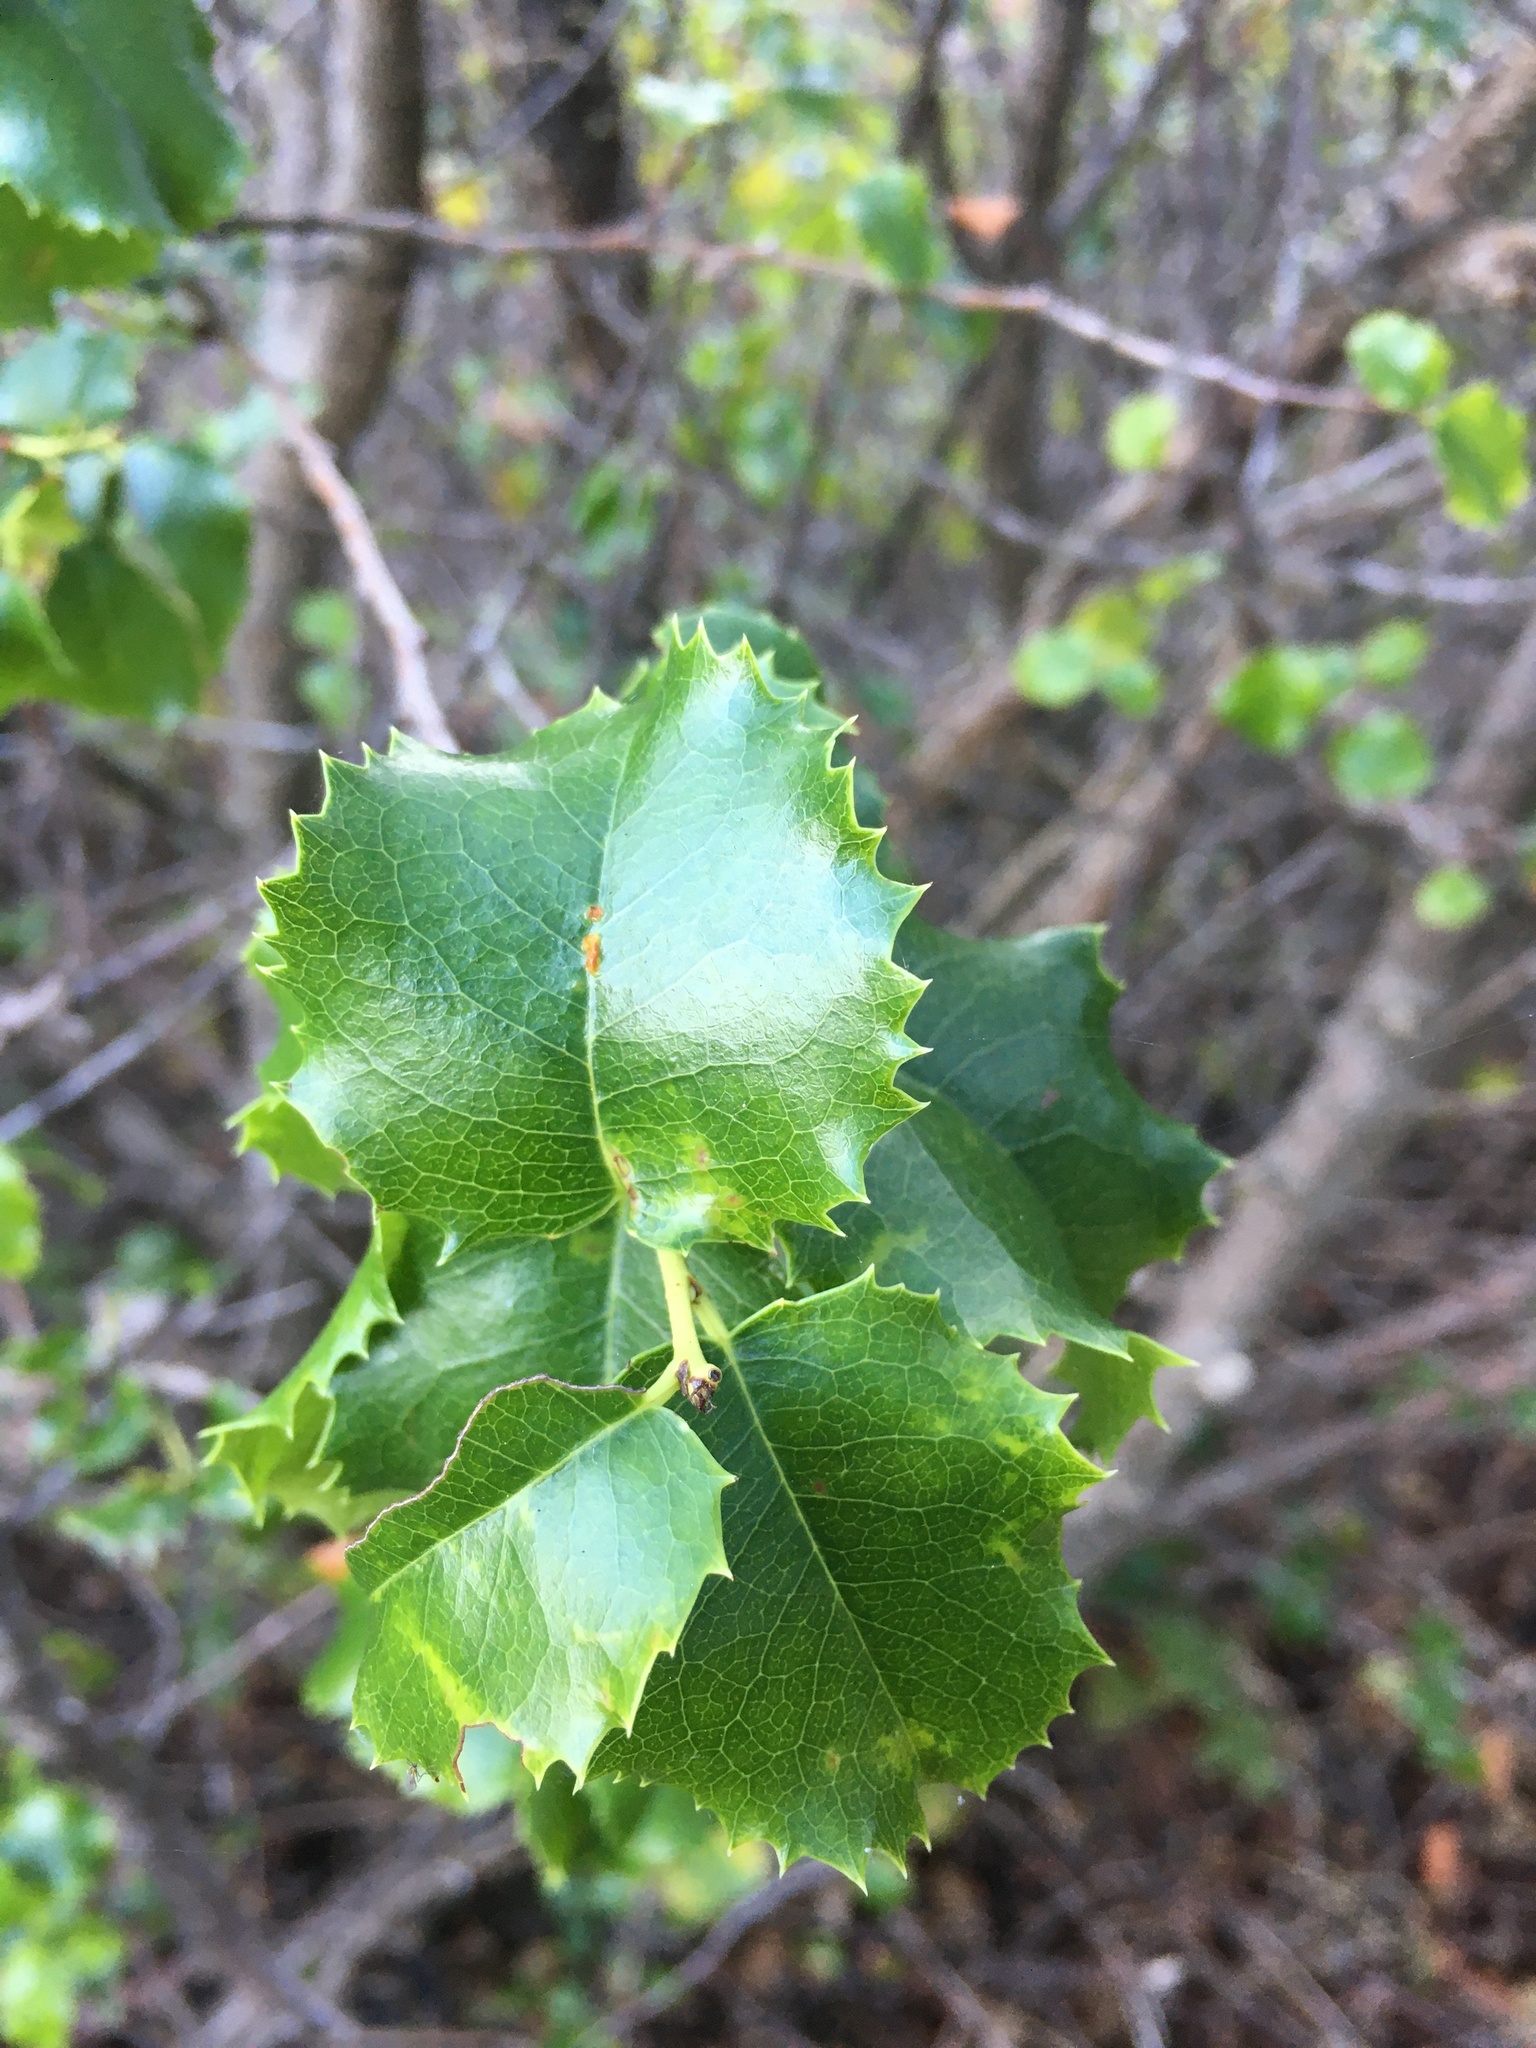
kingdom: Plantae
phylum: Tracheophyta
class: Magnoliopsida
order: Rosales
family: Rosaceae
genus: Prunus
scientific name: Prunus ilicifolia
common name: Hollyleaf cherry
